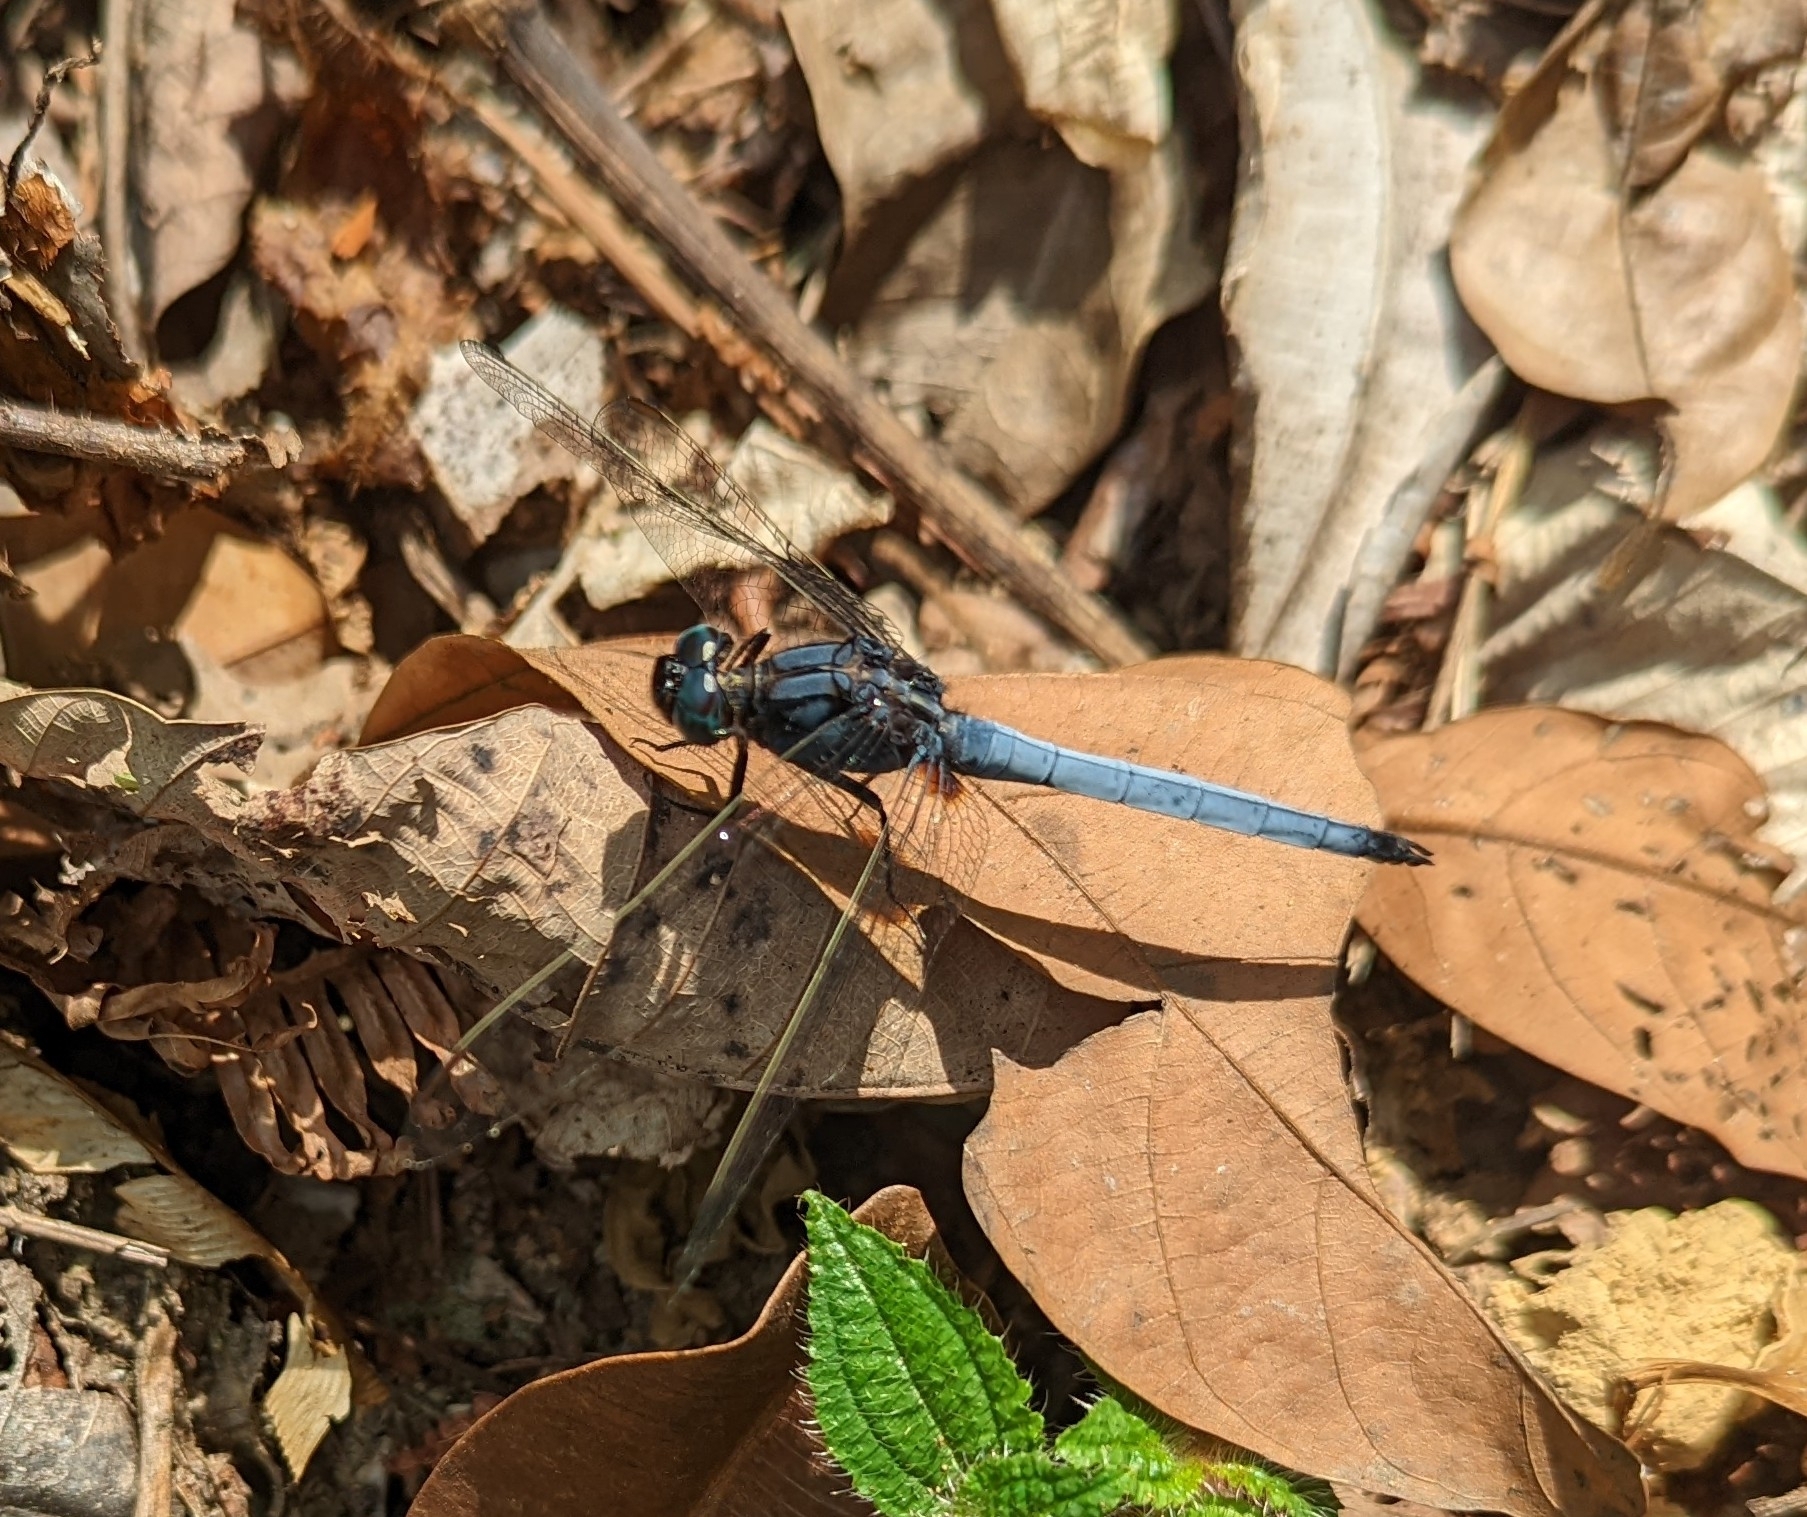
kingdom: Animalia
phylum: Arthropoda
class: Insecta
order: Odonata
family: Libellulidae
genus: Orthetrum
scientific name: Orthetrum glaucum
